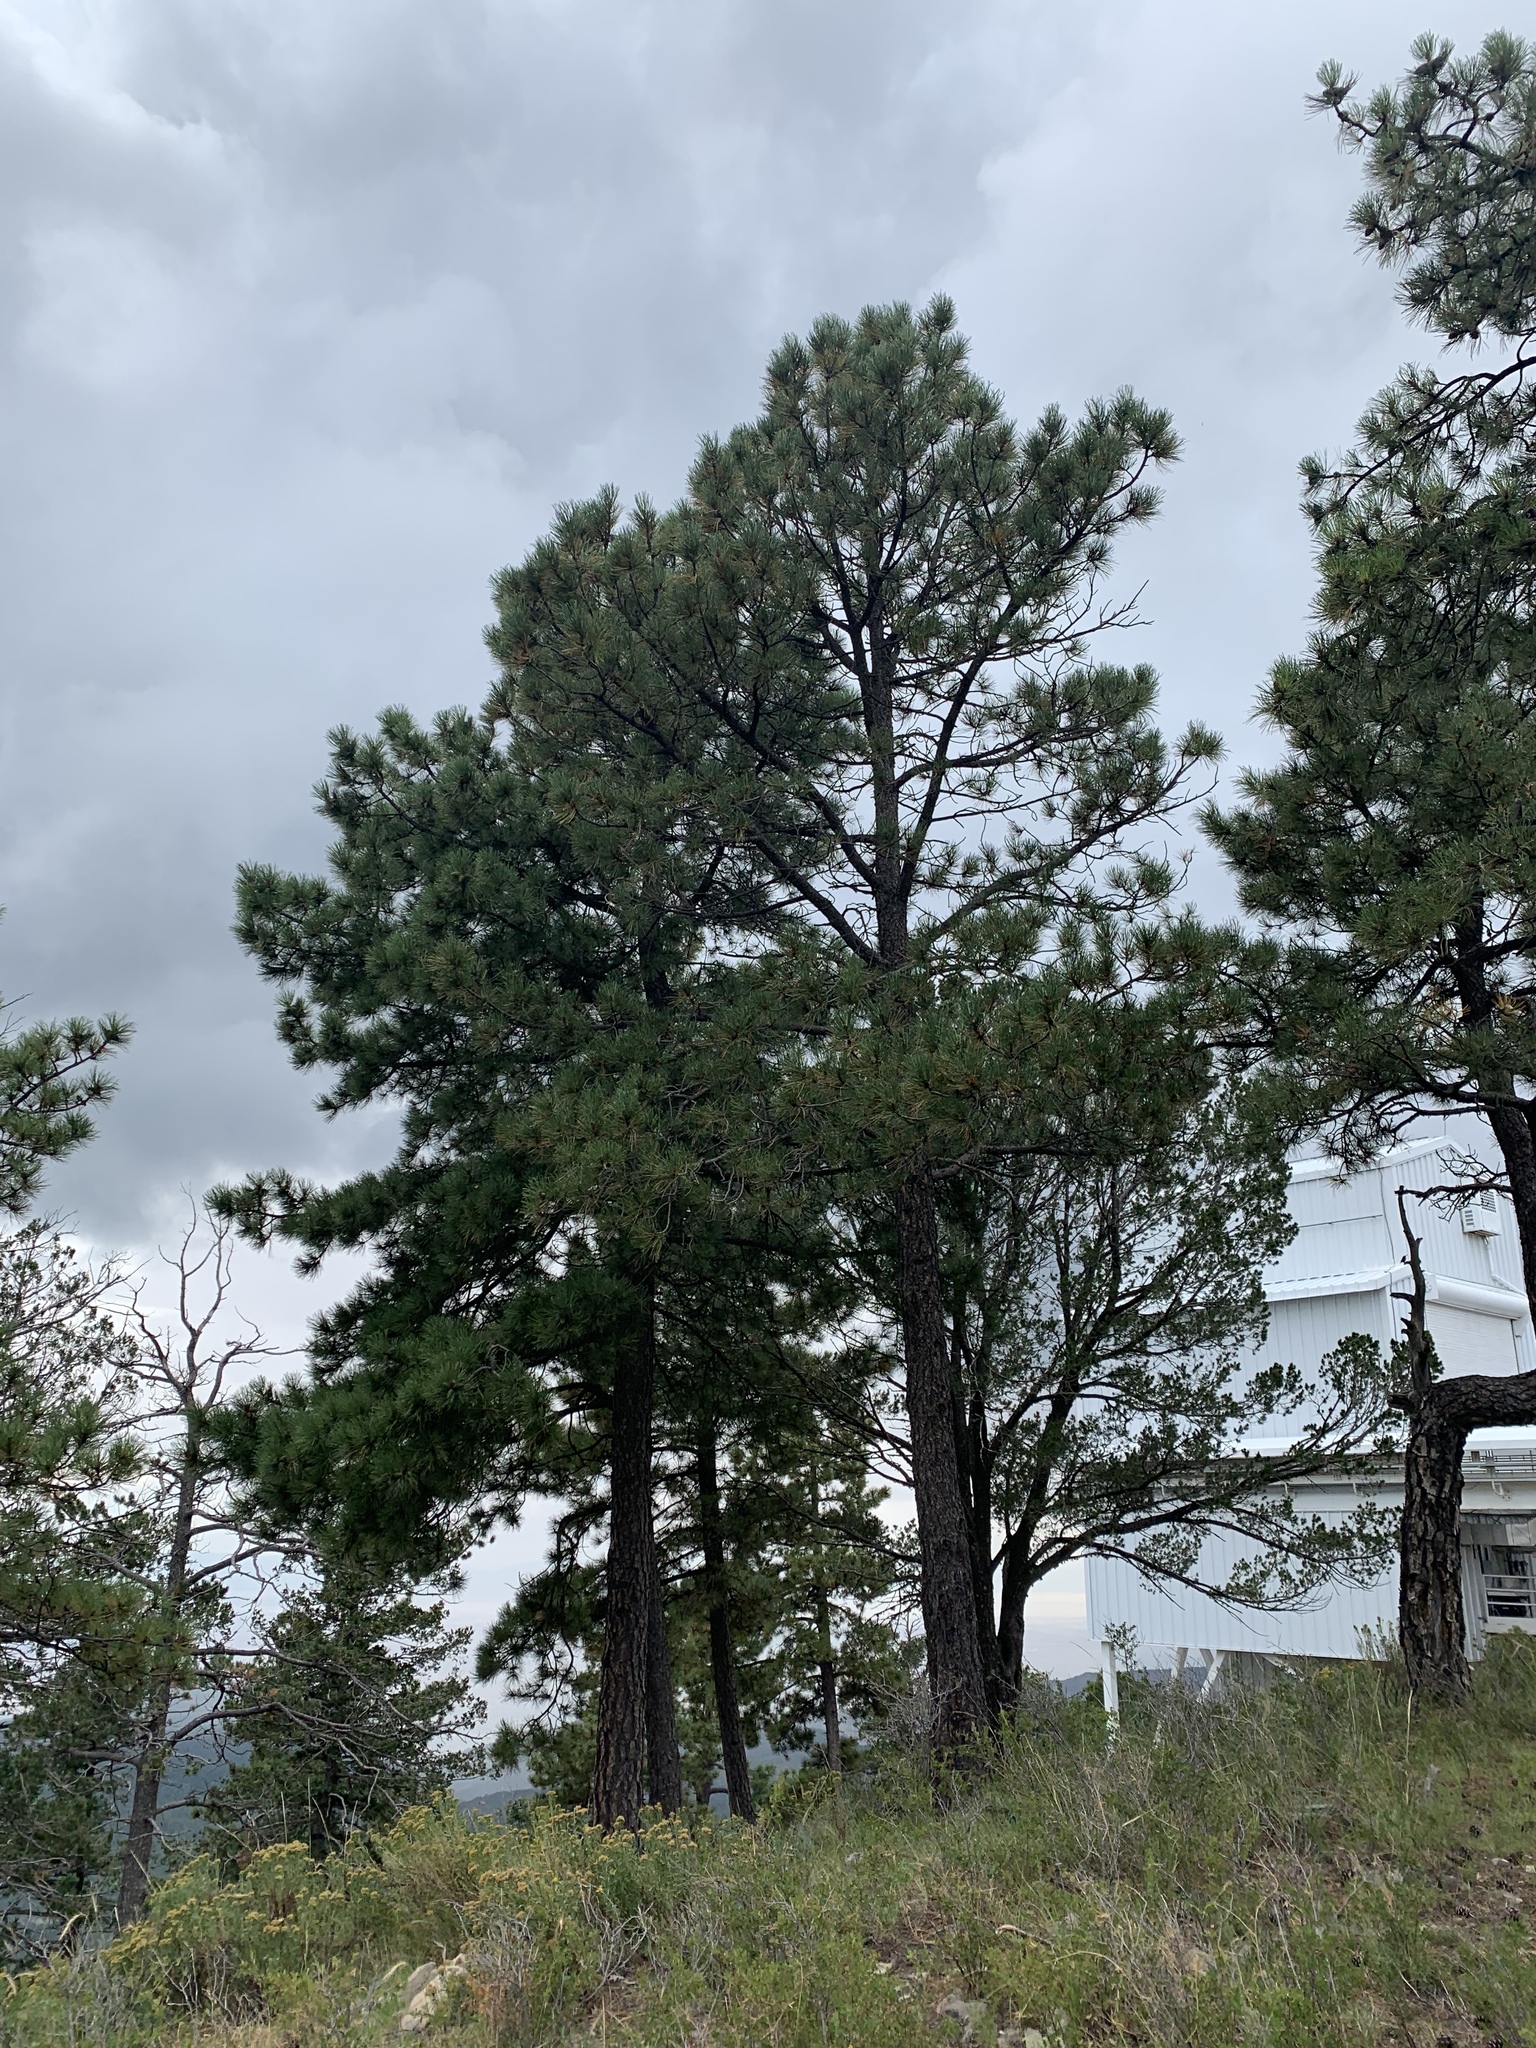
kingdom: Plantae
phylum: Tracheophyta
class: Pinopsida
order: Pinales
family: Pinaceae
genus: Pinus
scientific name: Pinus ponderosa
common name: Western yellow-pine
